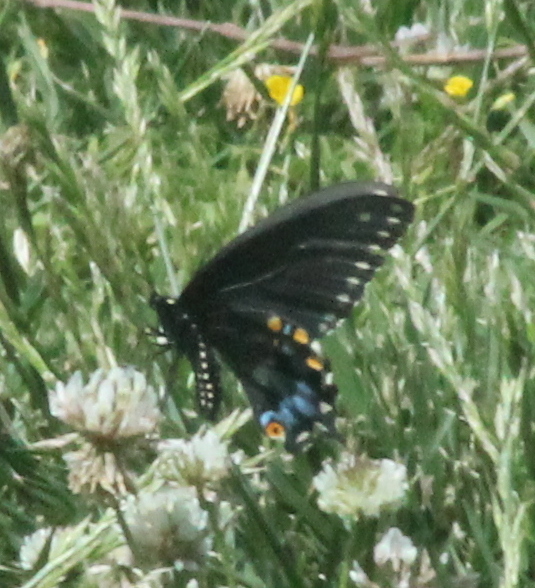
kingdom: Animalia
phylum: Arthropoda
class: Insecta
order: Lepidoptera
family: Papilionidae
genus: Papilio
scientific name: Papilio polyxenes
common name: Black swallowtail
